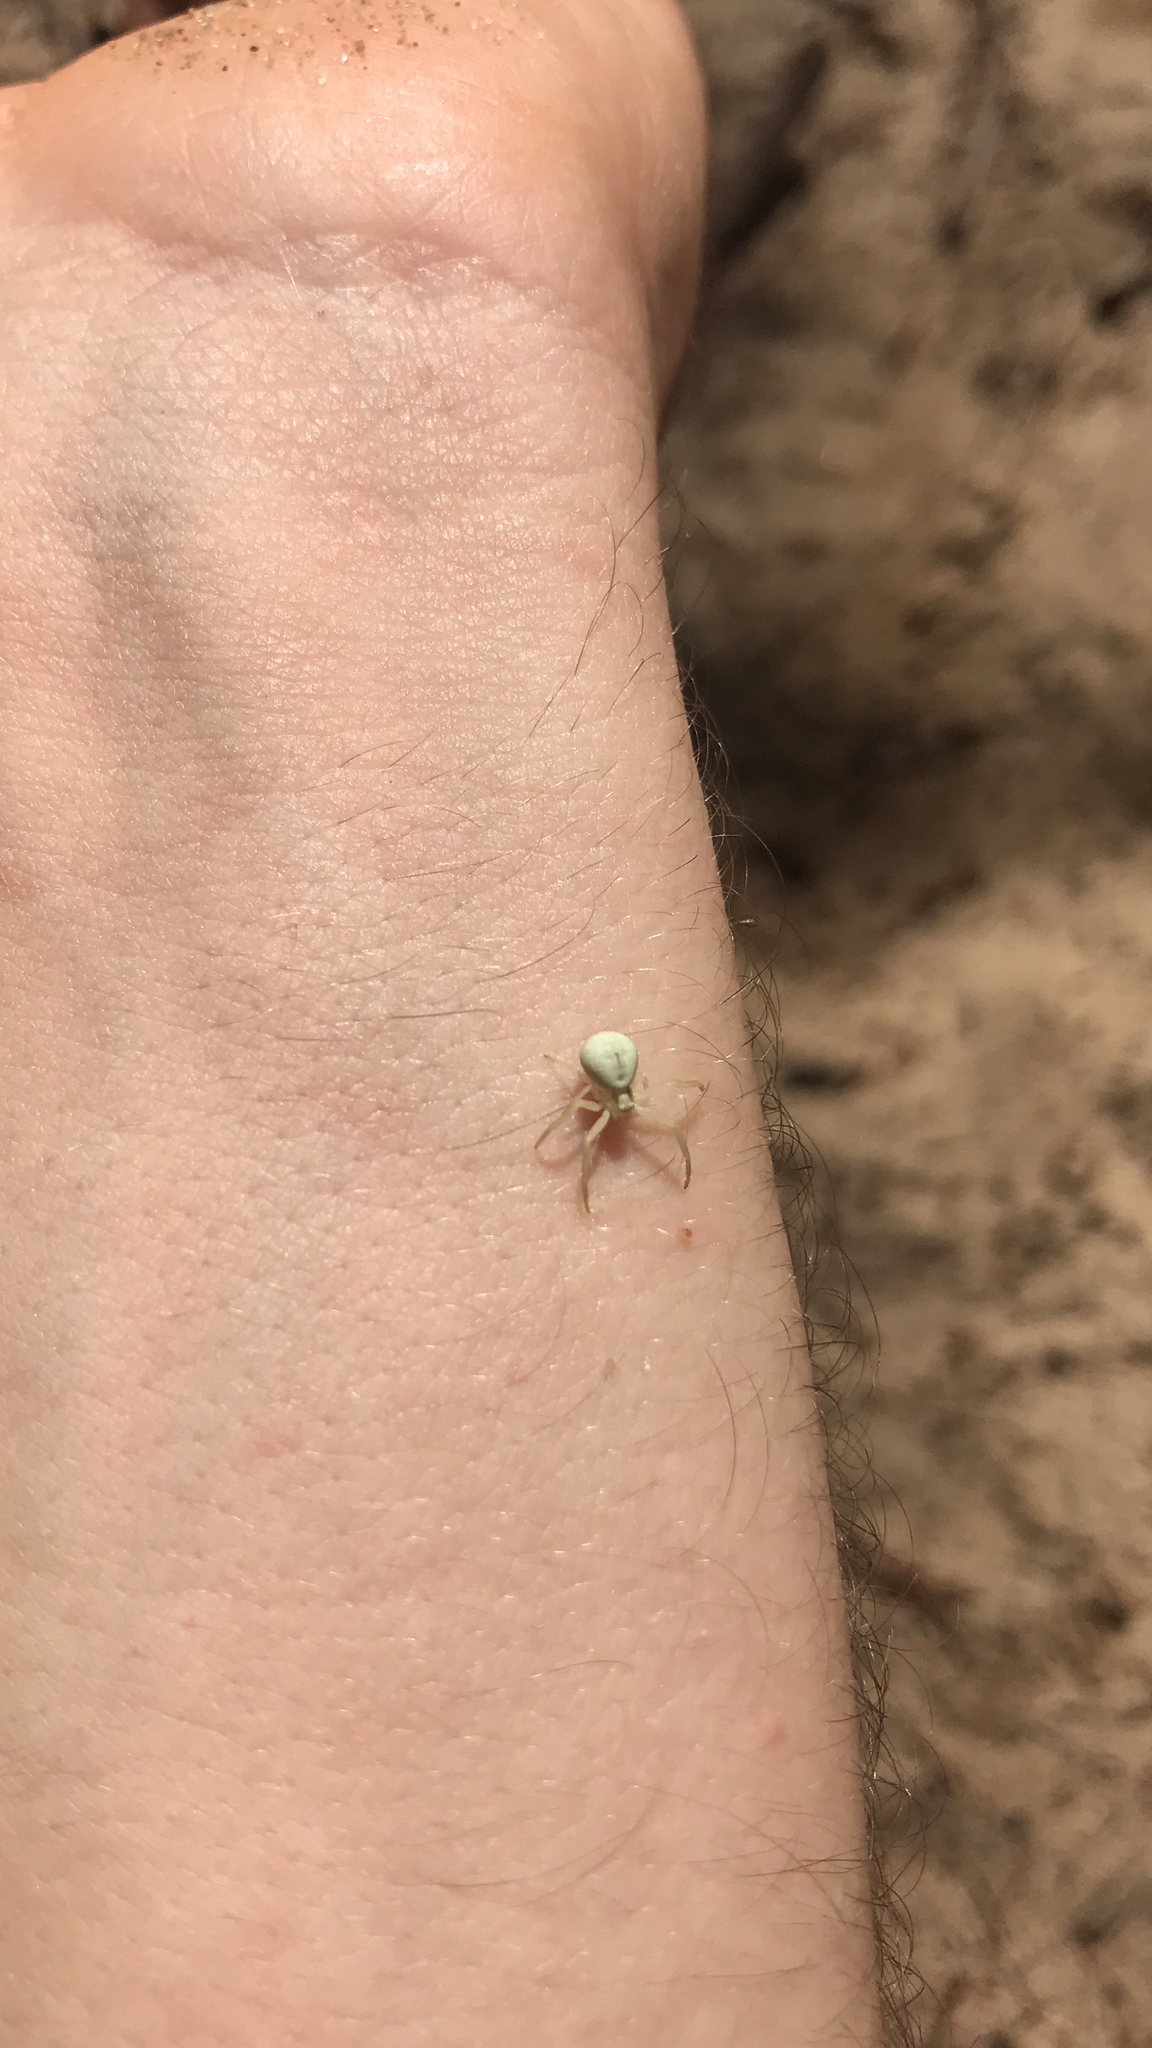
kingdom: Animalia
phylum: Arthropoda
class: Arachnida
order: Araneae
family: Thomisidae
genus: Misumena
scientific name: Misumena vatia
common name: Goldenrod crab spider
